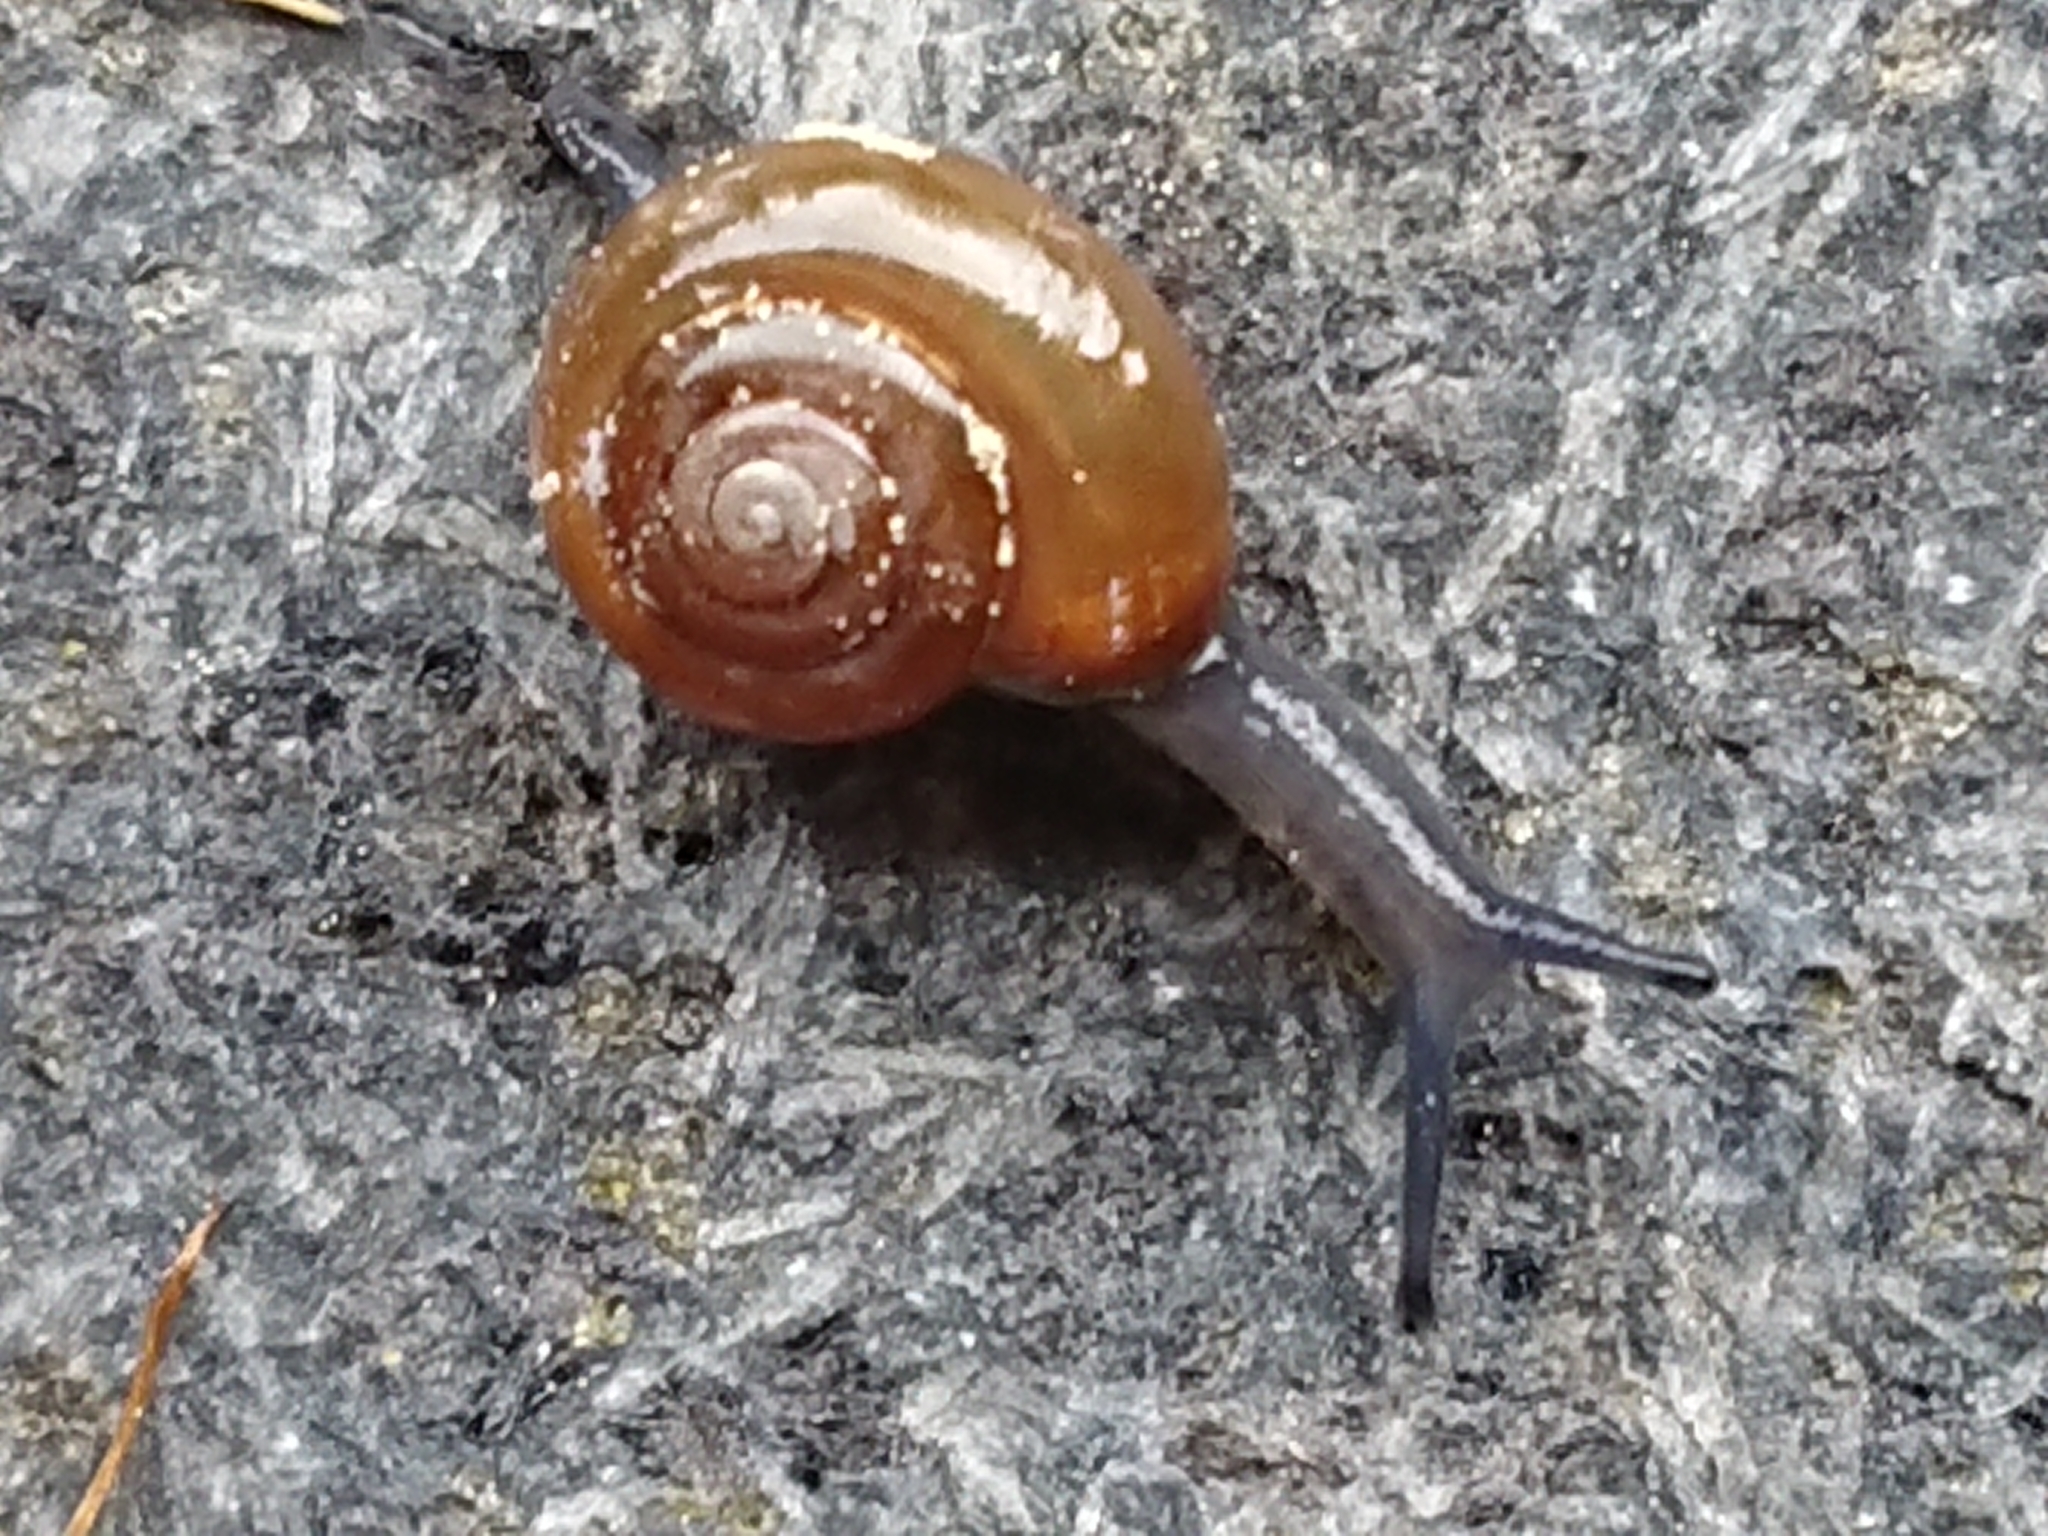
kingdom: Animalia
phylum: Mollusca
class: Gastropoda
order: Stylommatophora
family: Oxychilidae
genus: Oxychilus
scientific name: Oxychilus
